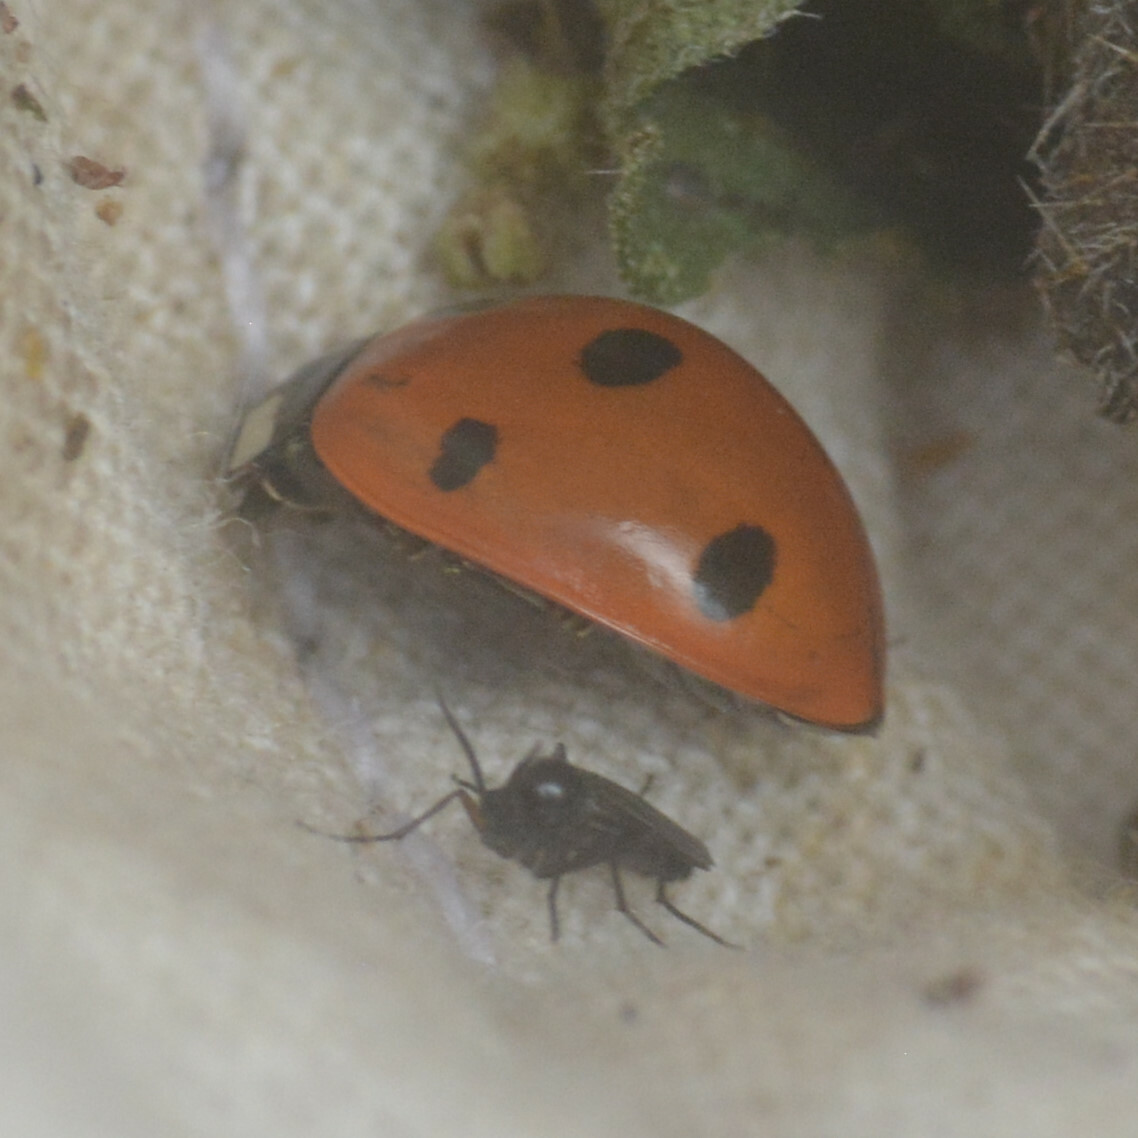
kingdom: Animalia
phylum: Arthropoda
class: Insecta
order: Coleoptera
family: Coccinellidae
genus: Coccinella
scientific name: Coccinella septempunctata
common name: Sevenspotted lady beetle
